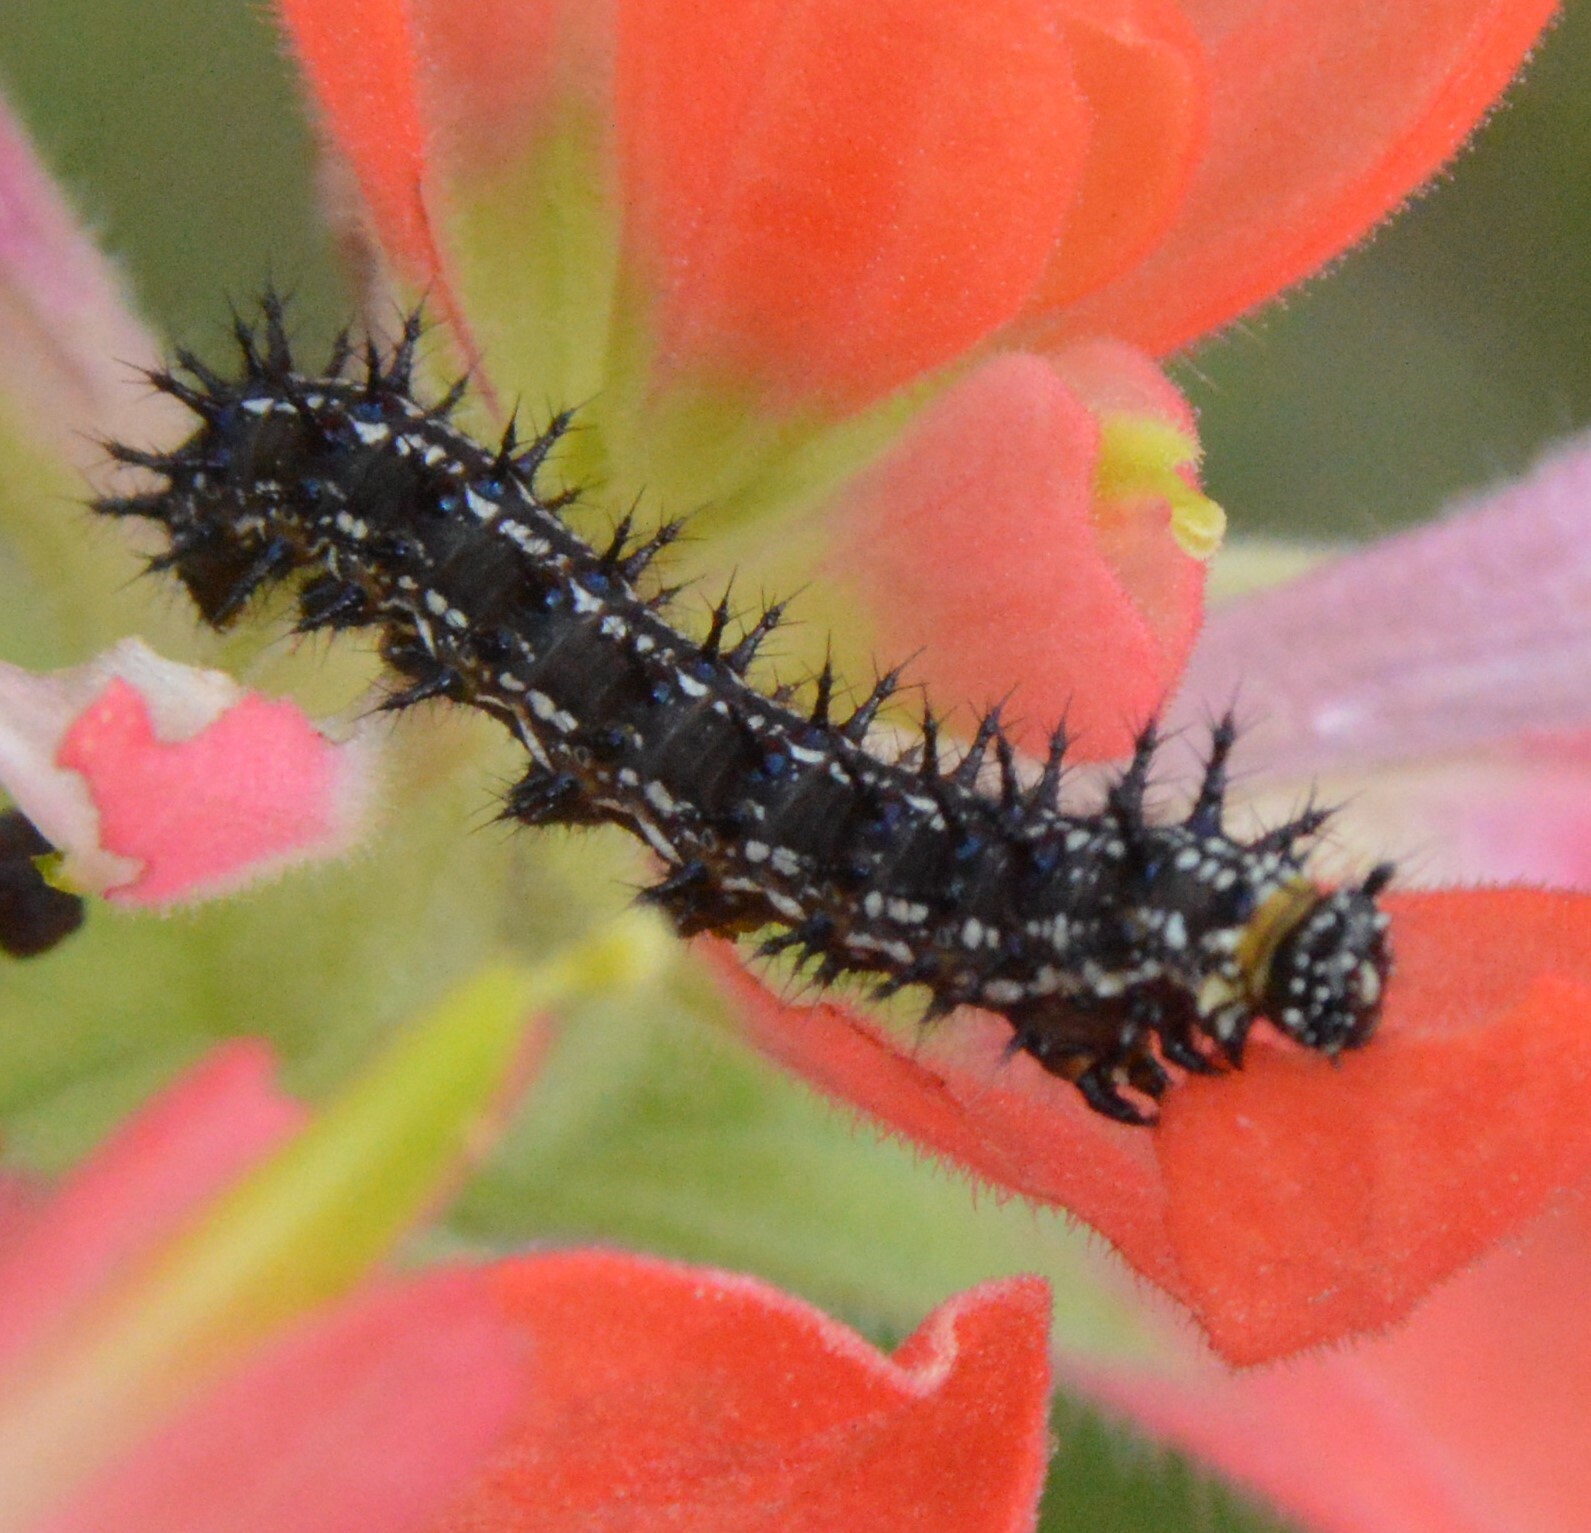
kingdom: Animalia
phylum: Arthropoda
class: Insecta
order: Lepidoptera
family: Nymphalidae
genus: Junonia
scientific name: Junonia coenia
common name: Common buckeye
